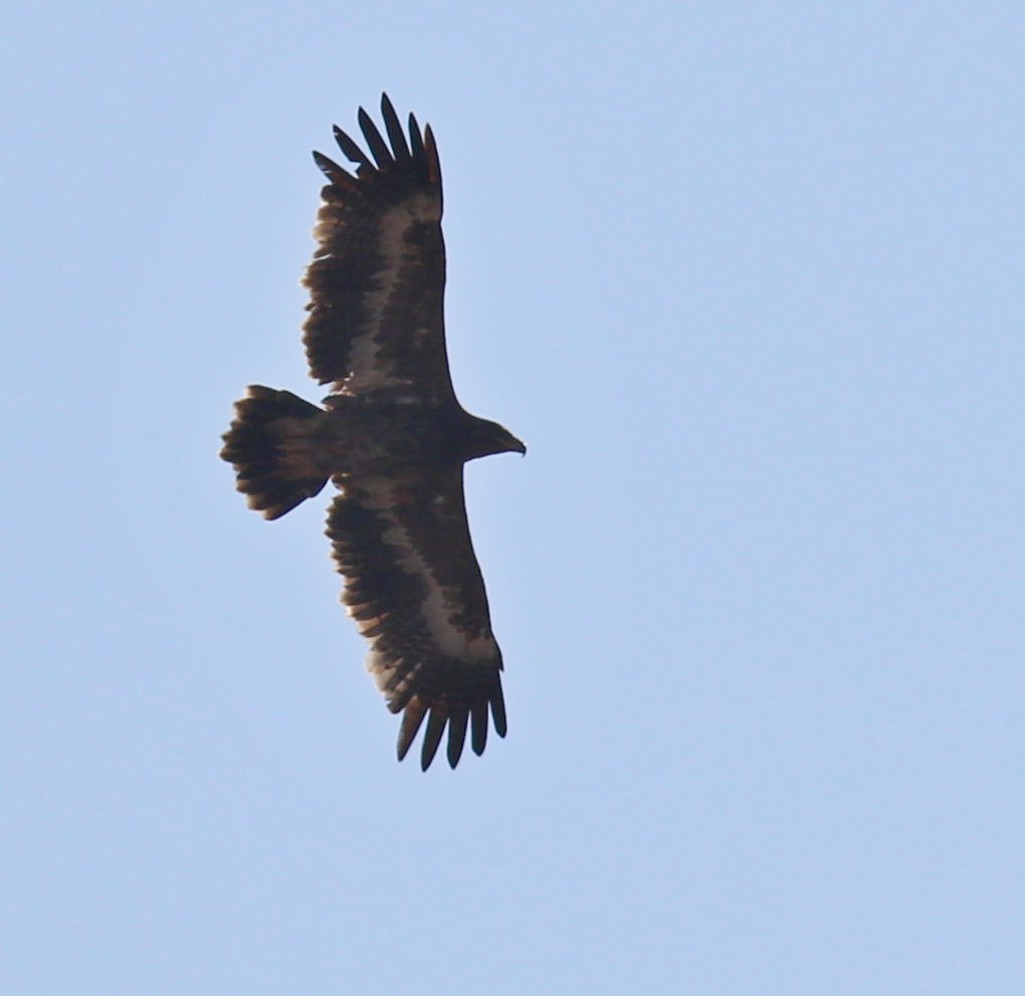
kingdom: Animalia
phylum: Chordata
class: Aves
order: Accipitriformes
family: Accipitridae
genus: Aquila
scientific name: Aquila nipalensis
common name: Steppe eagle
